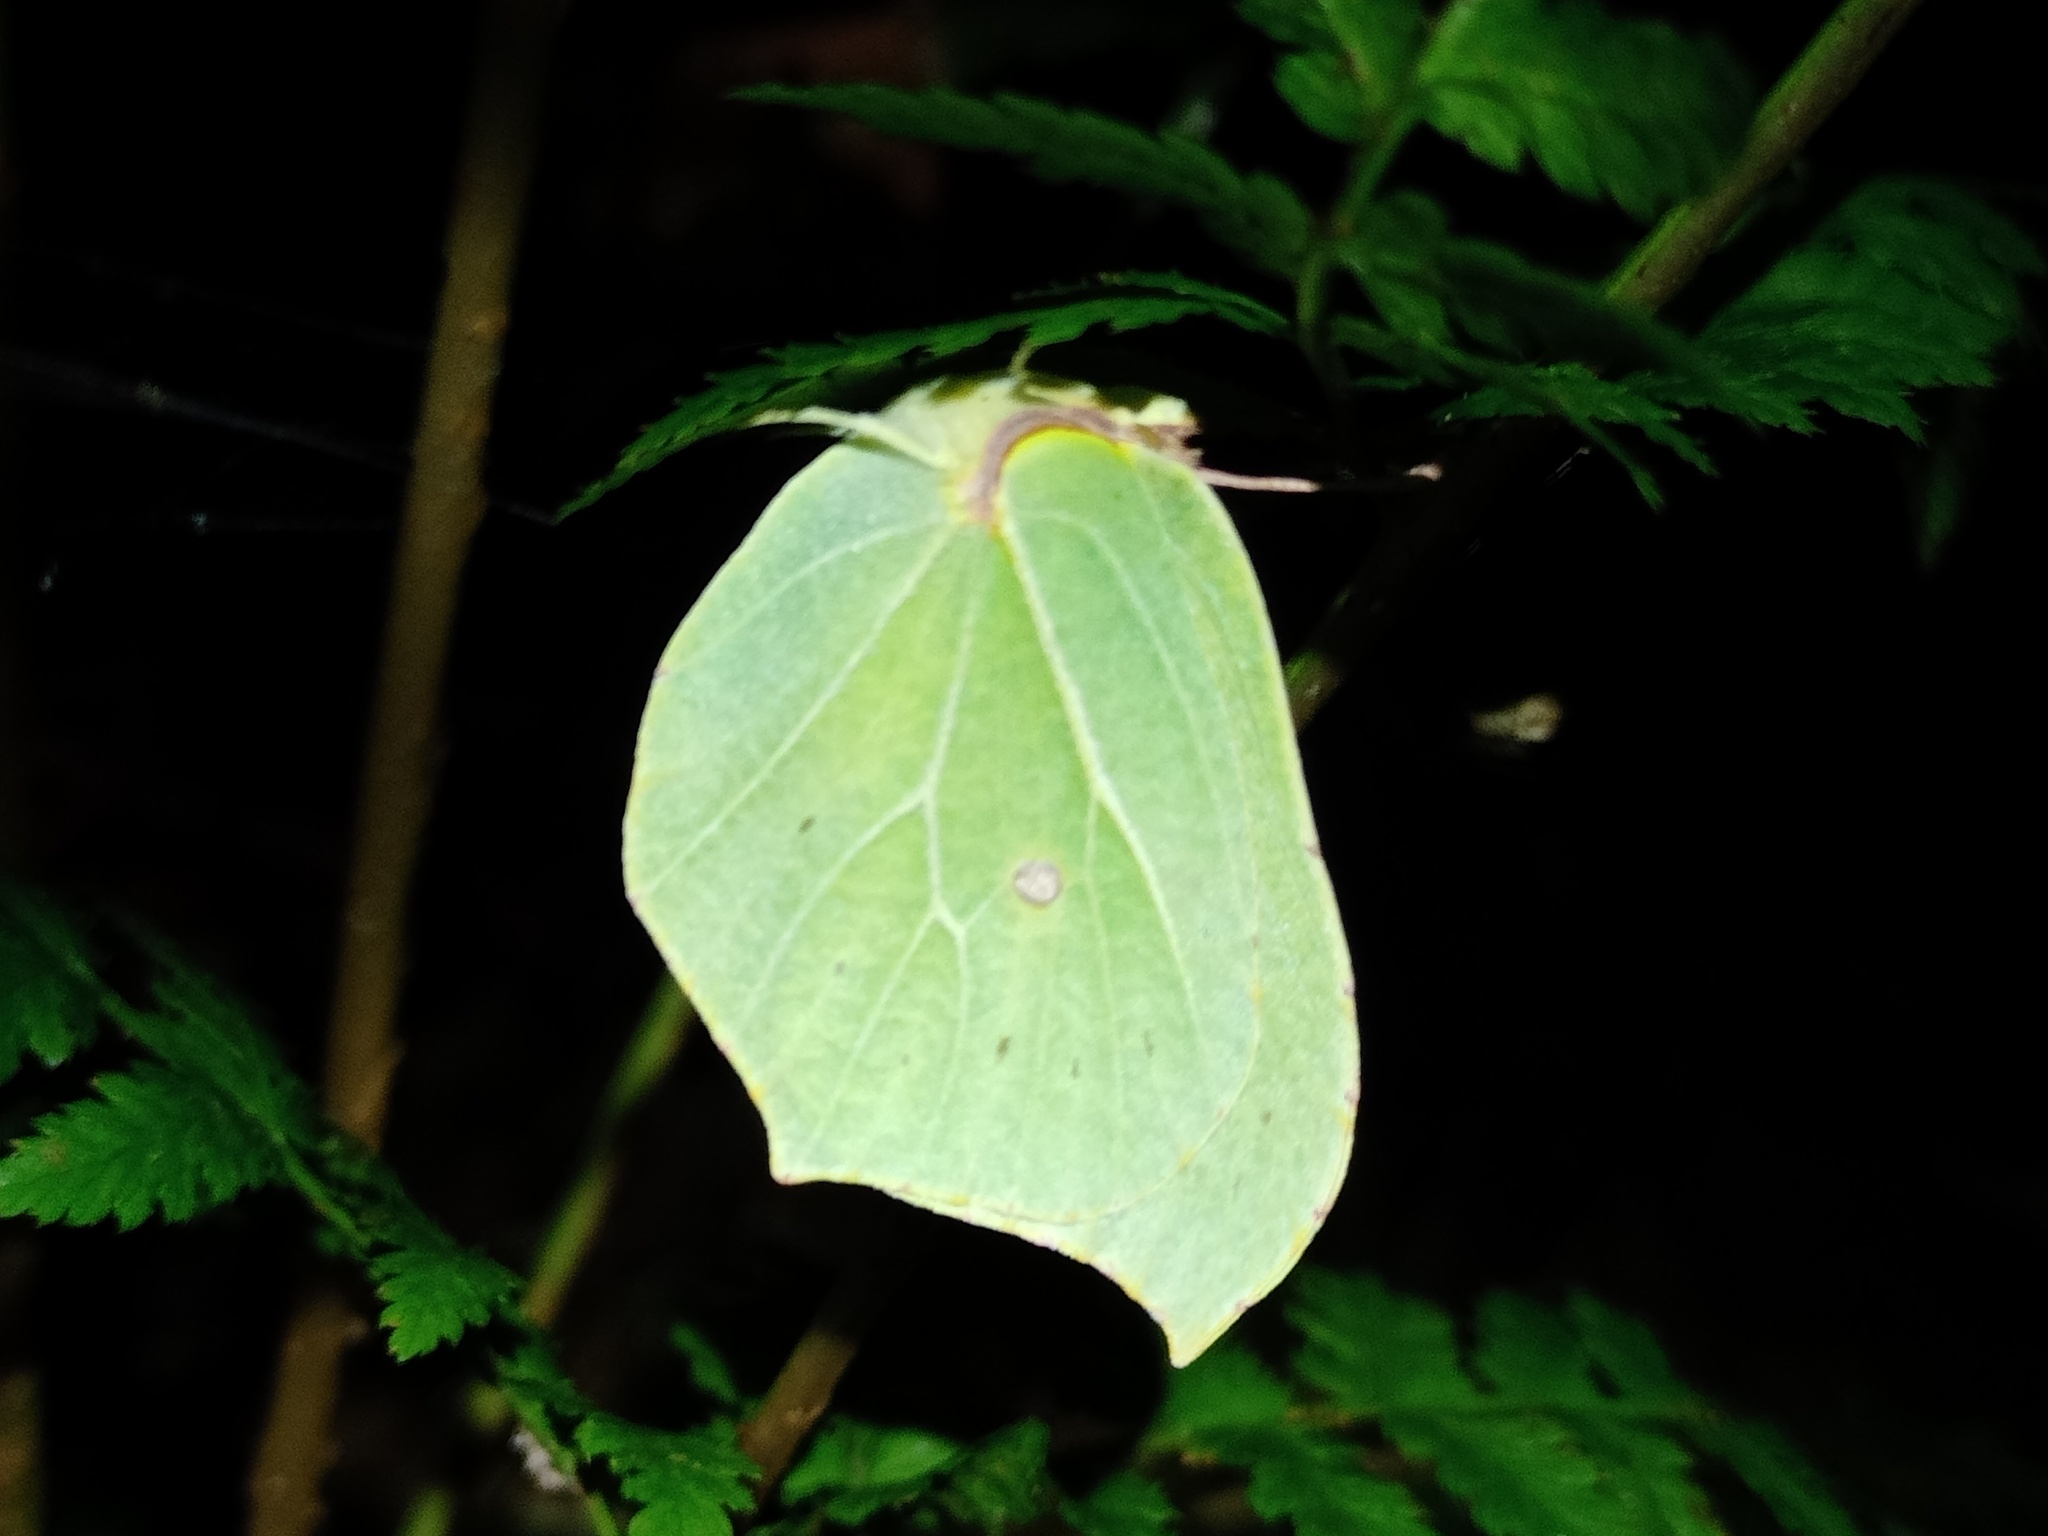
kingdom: Animalia
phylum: Arthropoda
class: Insecta
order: Lepidoptera
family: Pieridae
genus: Gonepteryx
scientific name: Gonepteryx rhamni
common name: Brimstone
